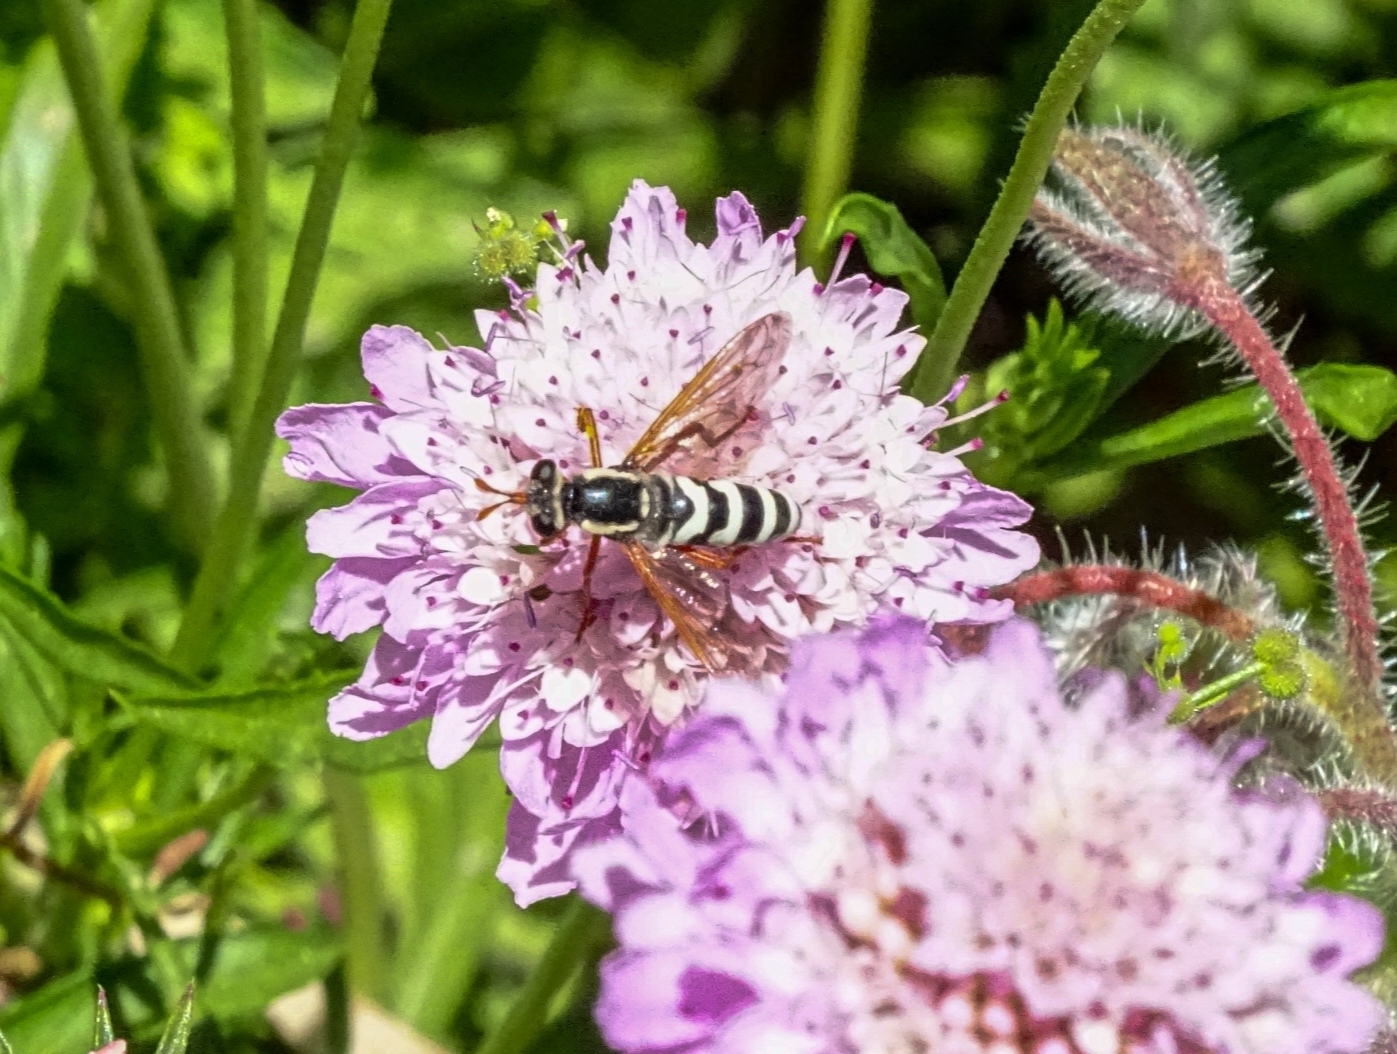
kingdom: Animalia
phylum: Arthropoda
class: Insecta
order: Diptera
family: Mydidae
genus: Mitrodetus
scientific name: Mitrodetus dentitarsis
